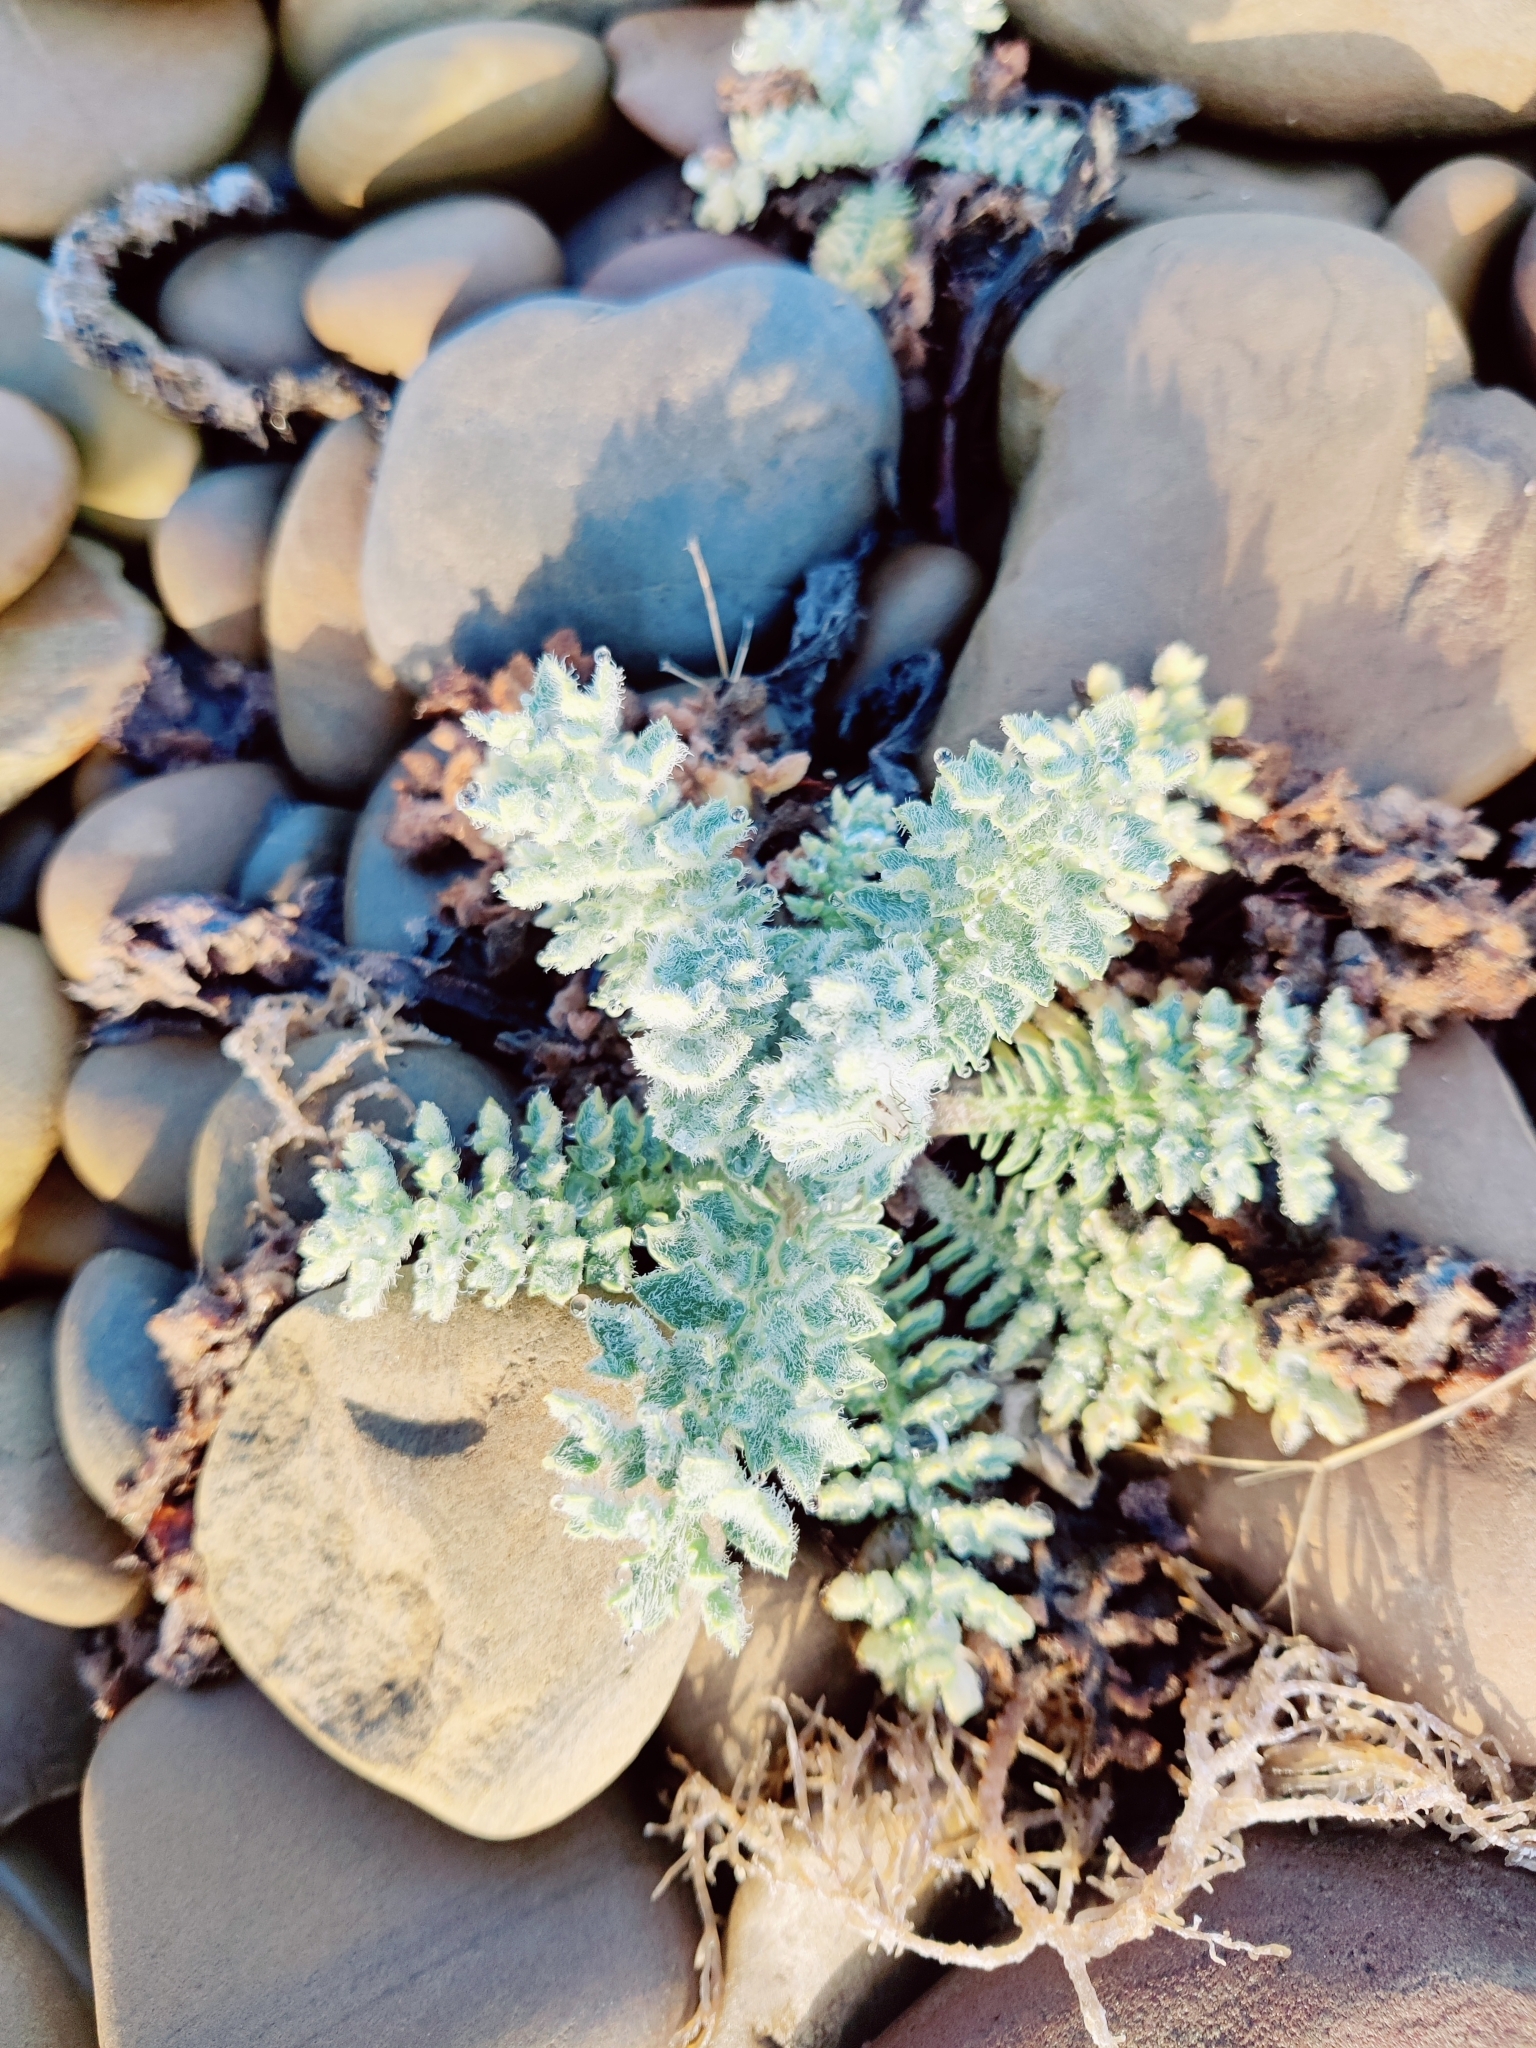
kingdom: Plantae
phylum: Tracheophyta
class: Magnoliopsida
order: Ranunculales
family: Papaveraceae
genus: Glaucium
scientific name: Glaucium flavum
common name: Yellow horned-poppy
